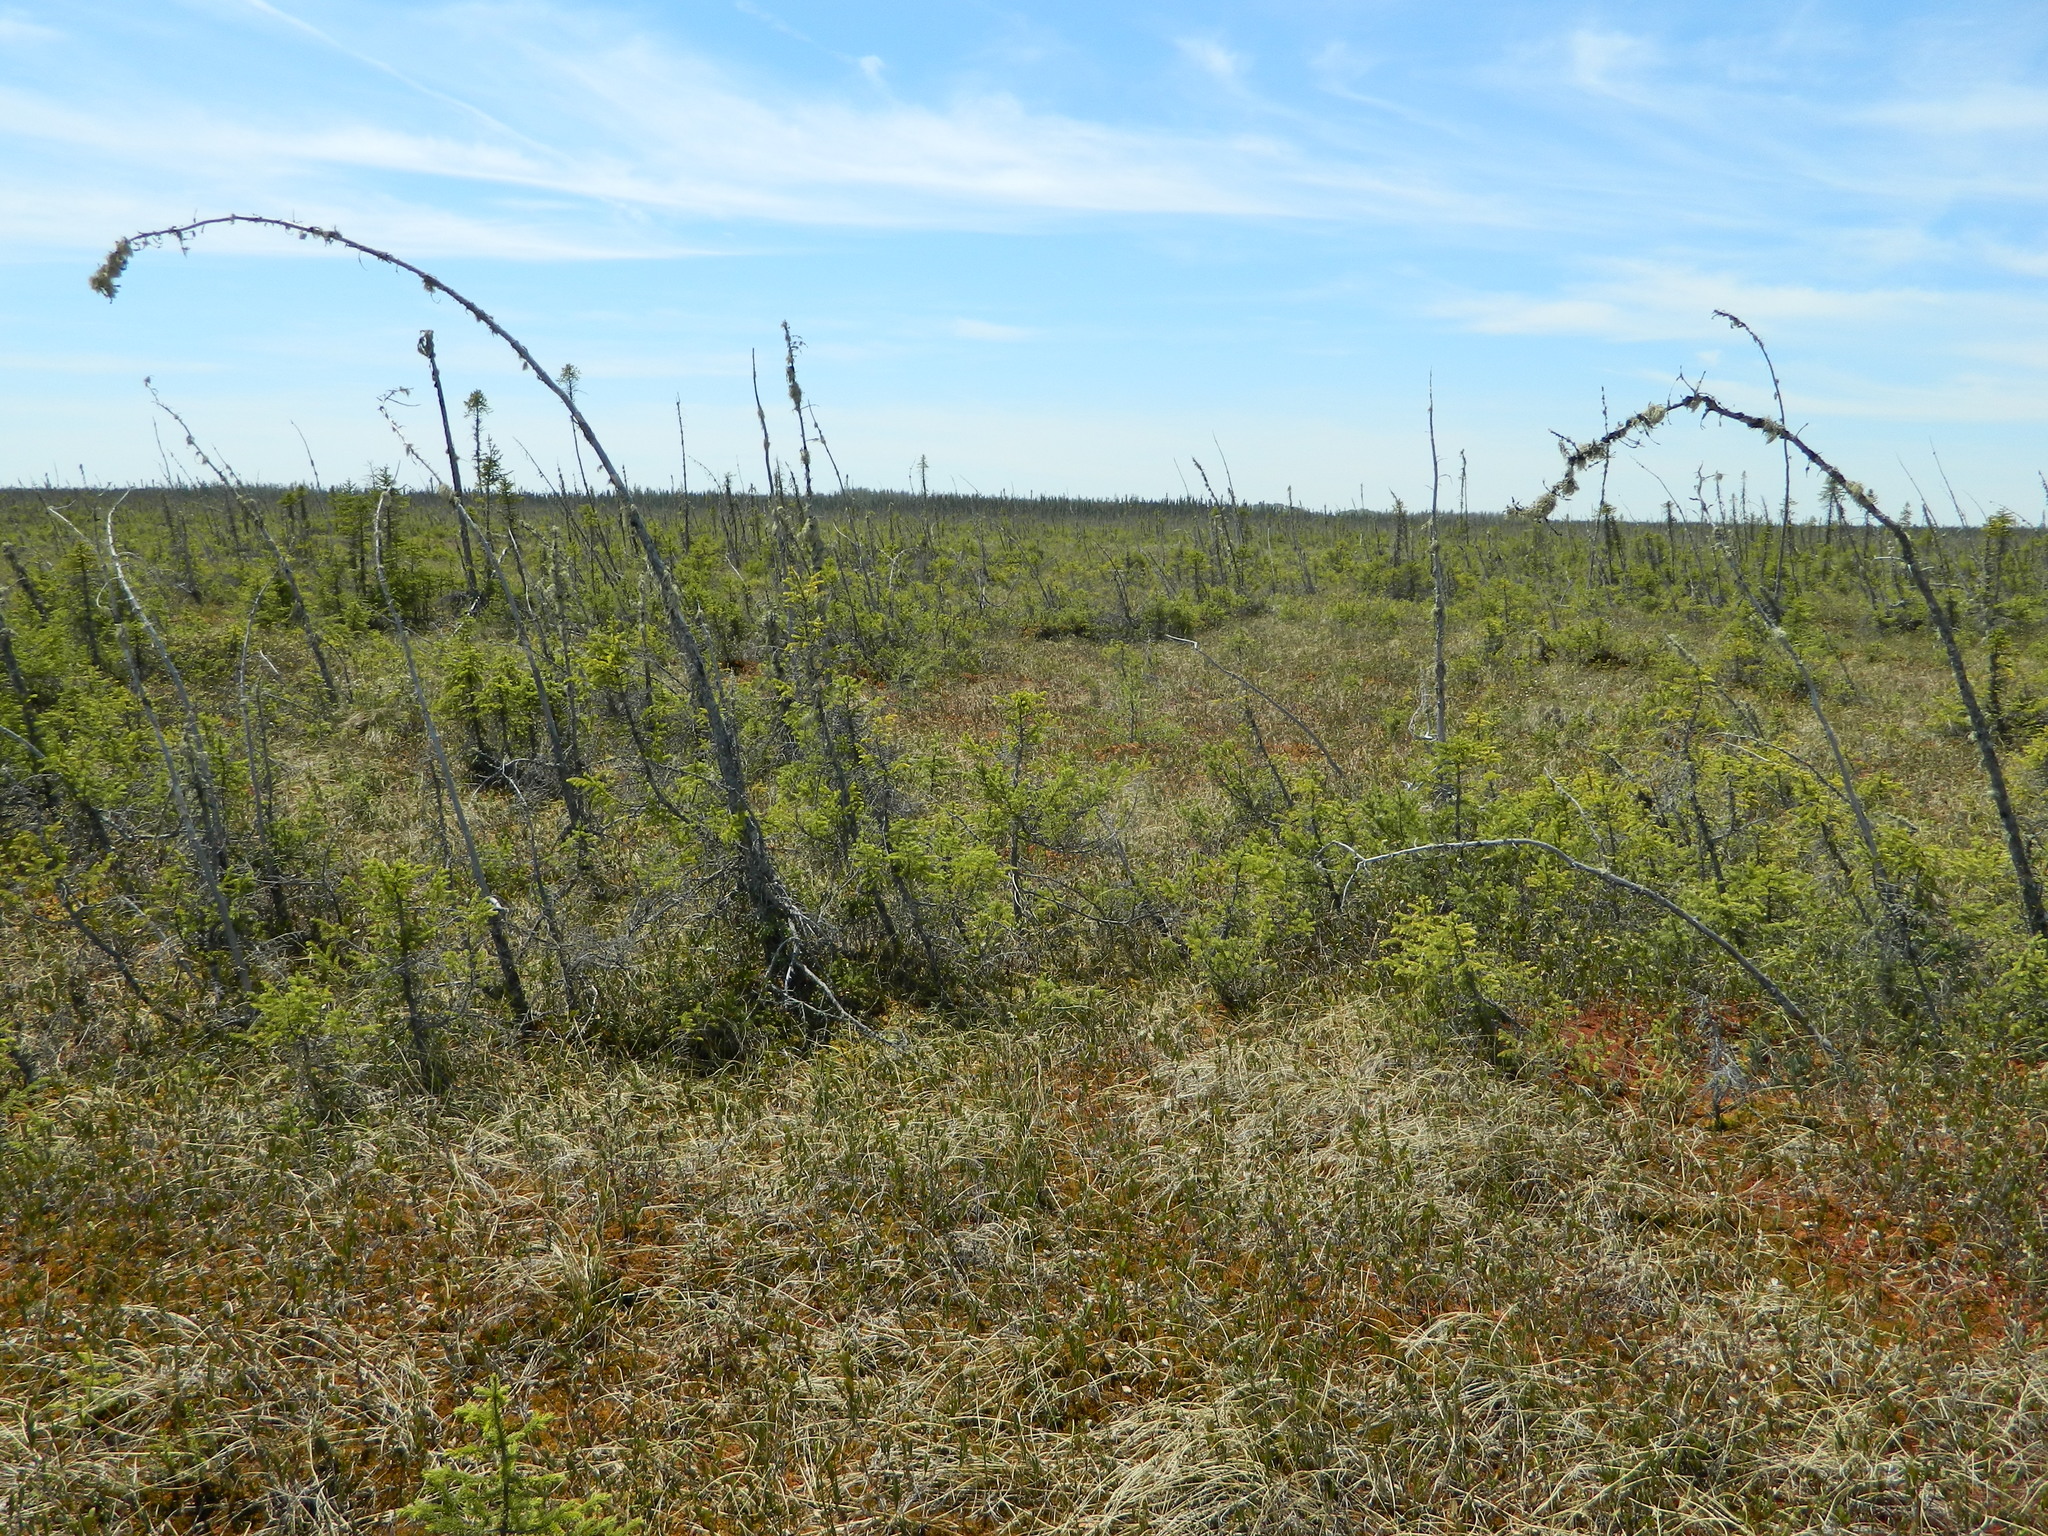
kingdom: Plantae
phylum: Tracheophyta
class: Pinopsida
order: Pinales
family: Pinaceae
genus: Picea
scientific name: Picea mariana
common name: Black spruce
